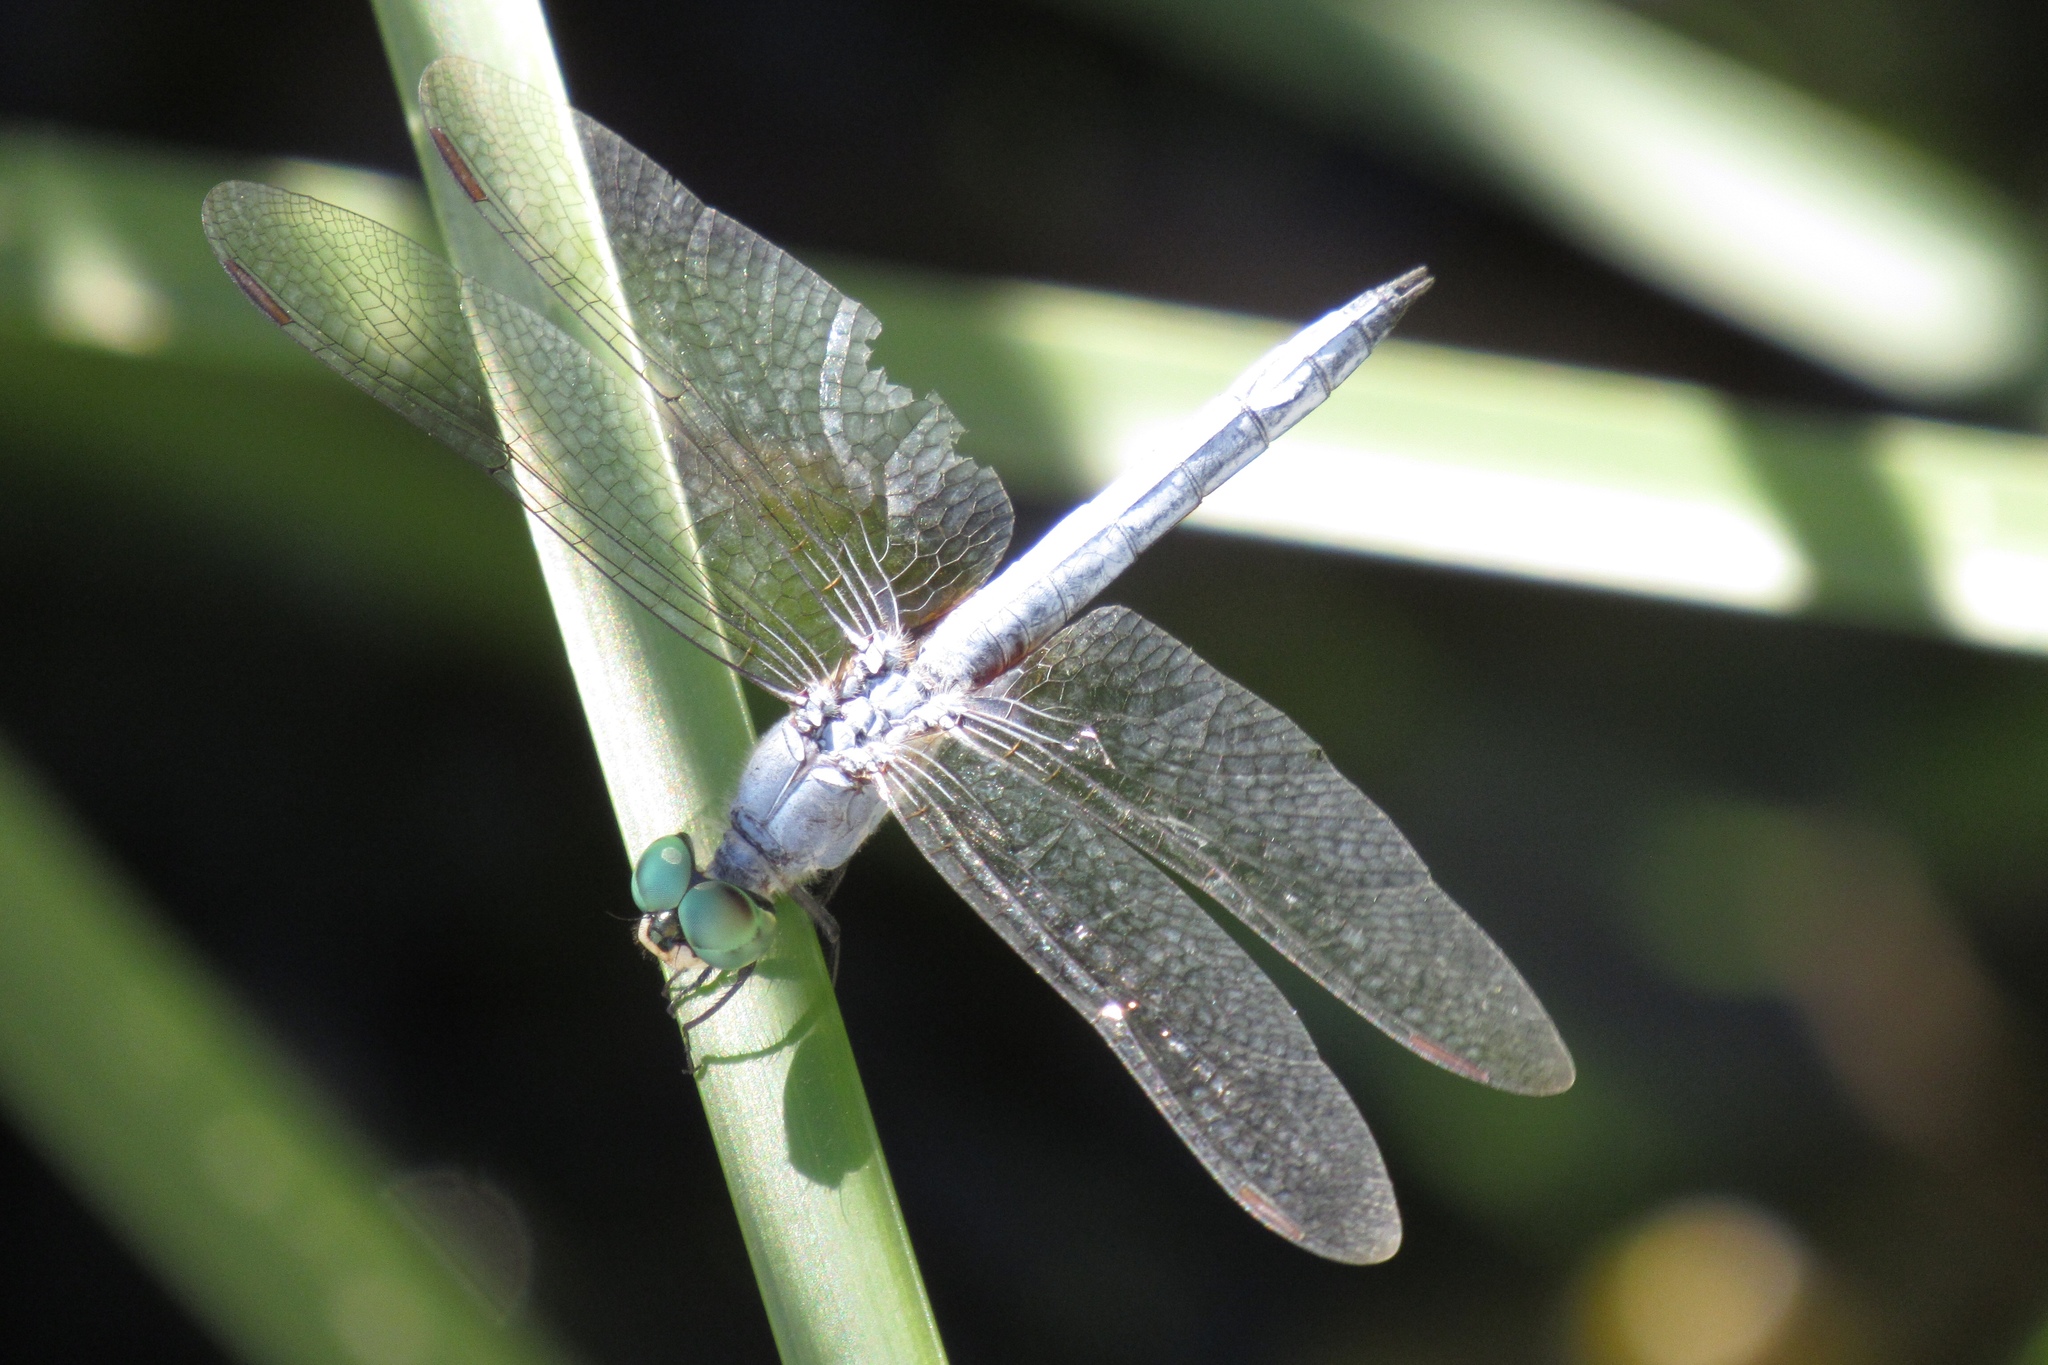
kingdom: Animalia
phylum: Arthropoda
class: Insecta
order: Odonata
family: Libellulidae
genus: Pachydiplax
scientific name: Pachydiplax longipennis
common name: Blue dasher
